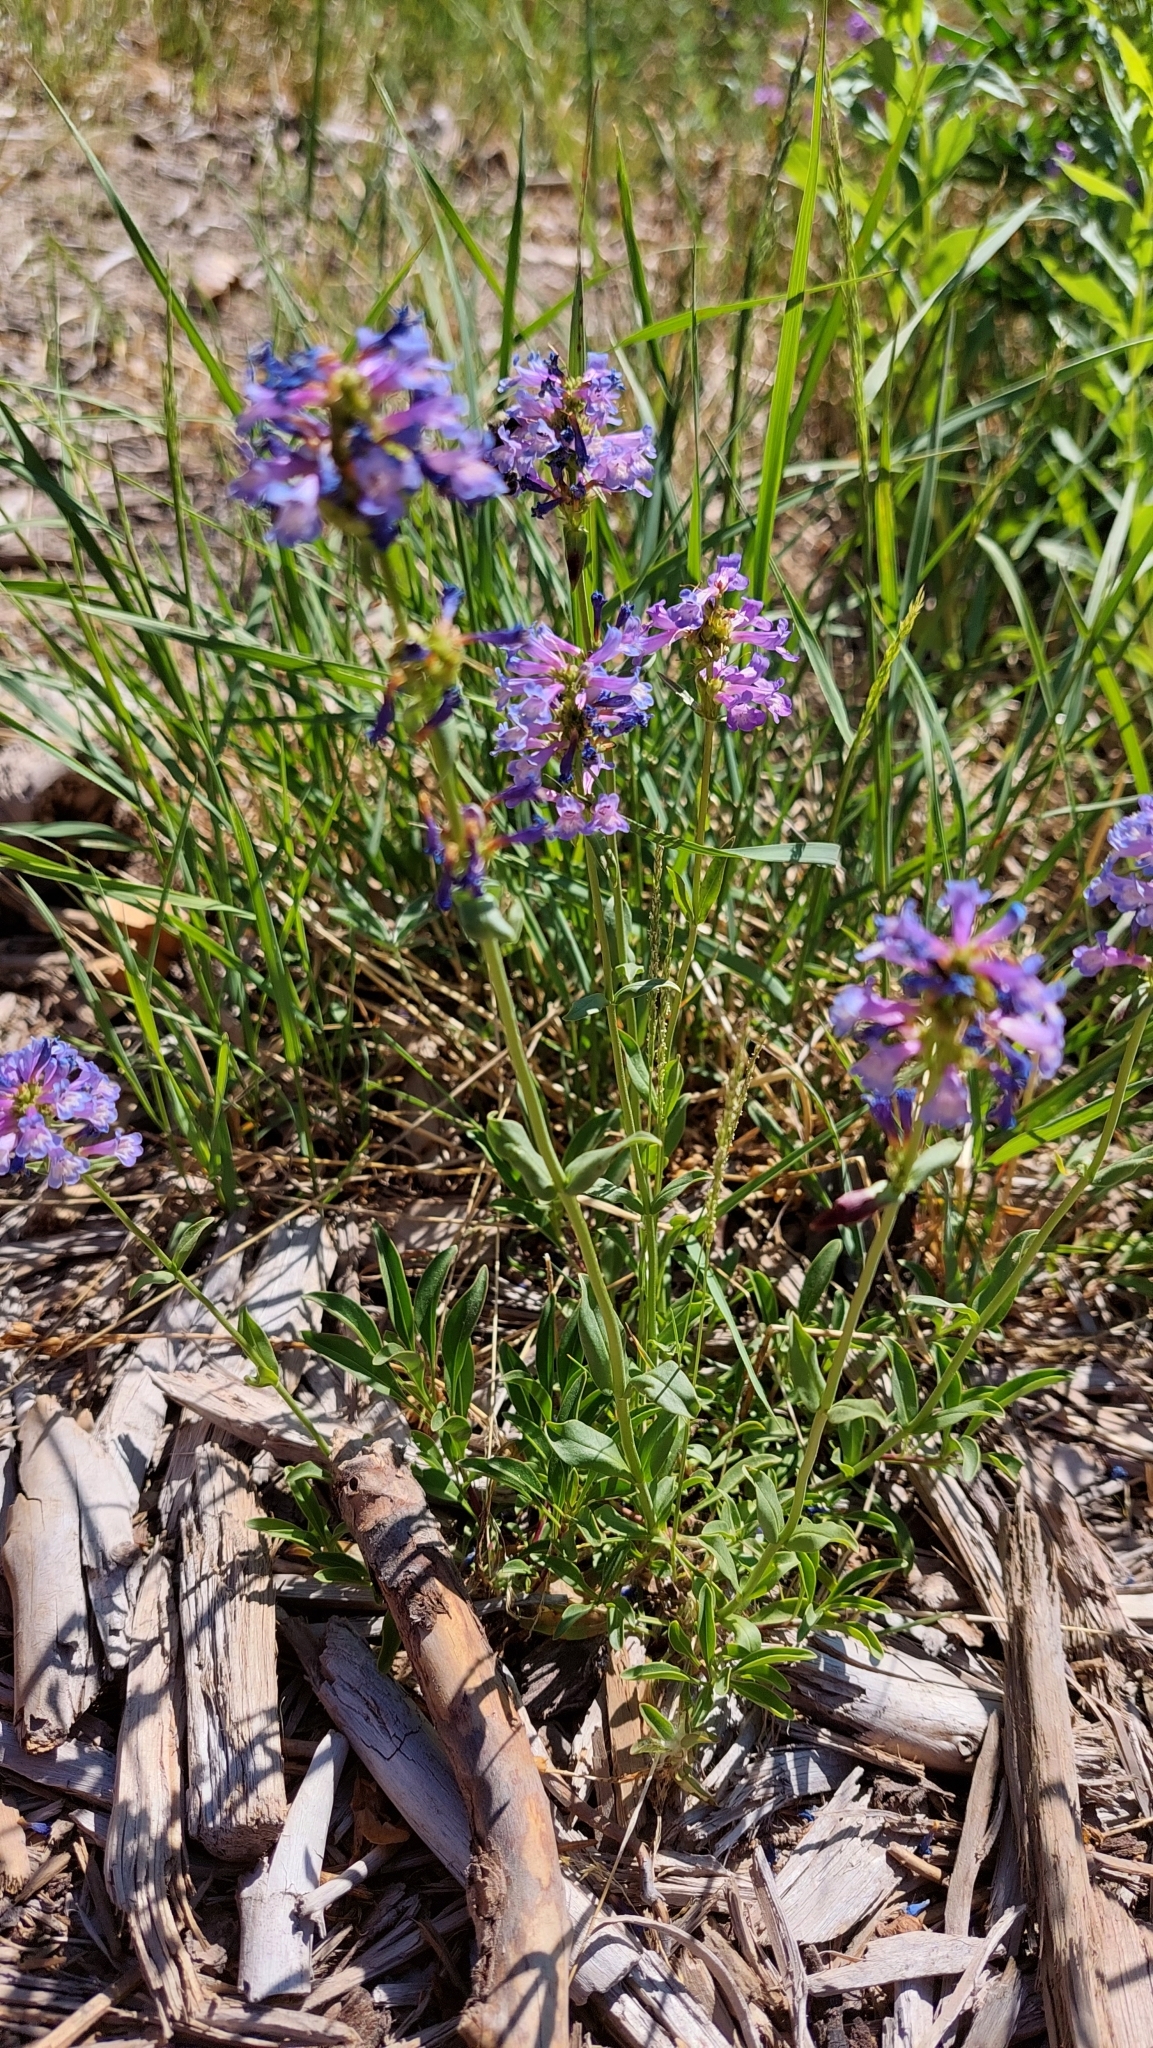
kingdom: Plantae
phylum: Tracheophyta
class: Magnoliopsida
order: Lamiales
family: Plantaginaceae
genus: Penstemon
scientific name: Penstemon procerus
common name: Small-flower penstemon
